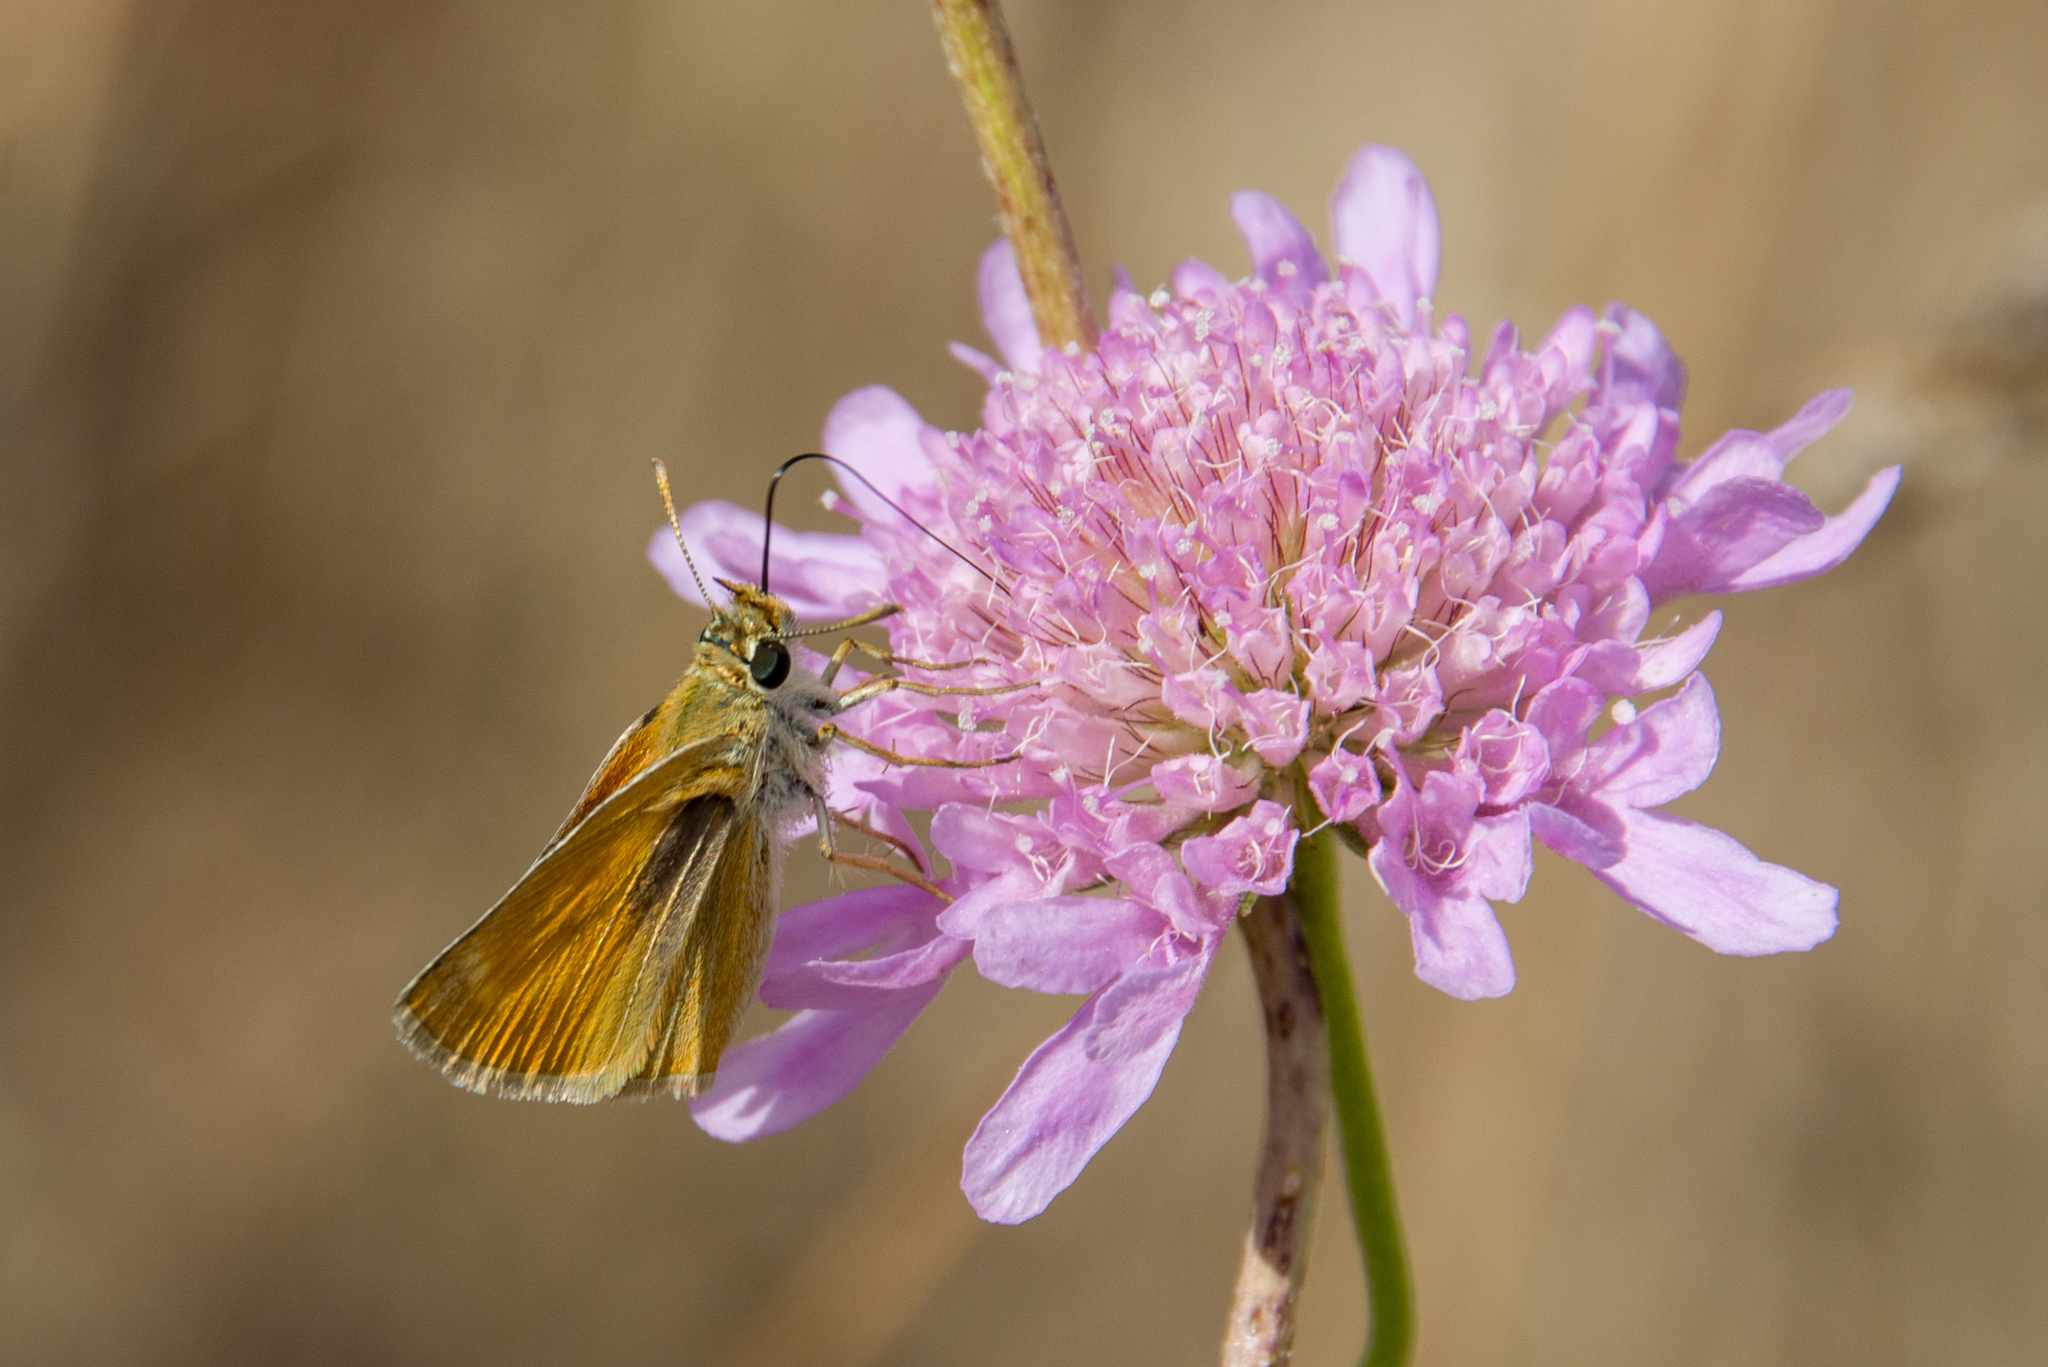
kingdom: Animalia
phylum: Arthropoda
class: Insecta
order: Lepidoptera
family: Hesperiidae
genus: Thymelicus
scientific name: Thymelicus acteon
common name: Lulworth skipper
